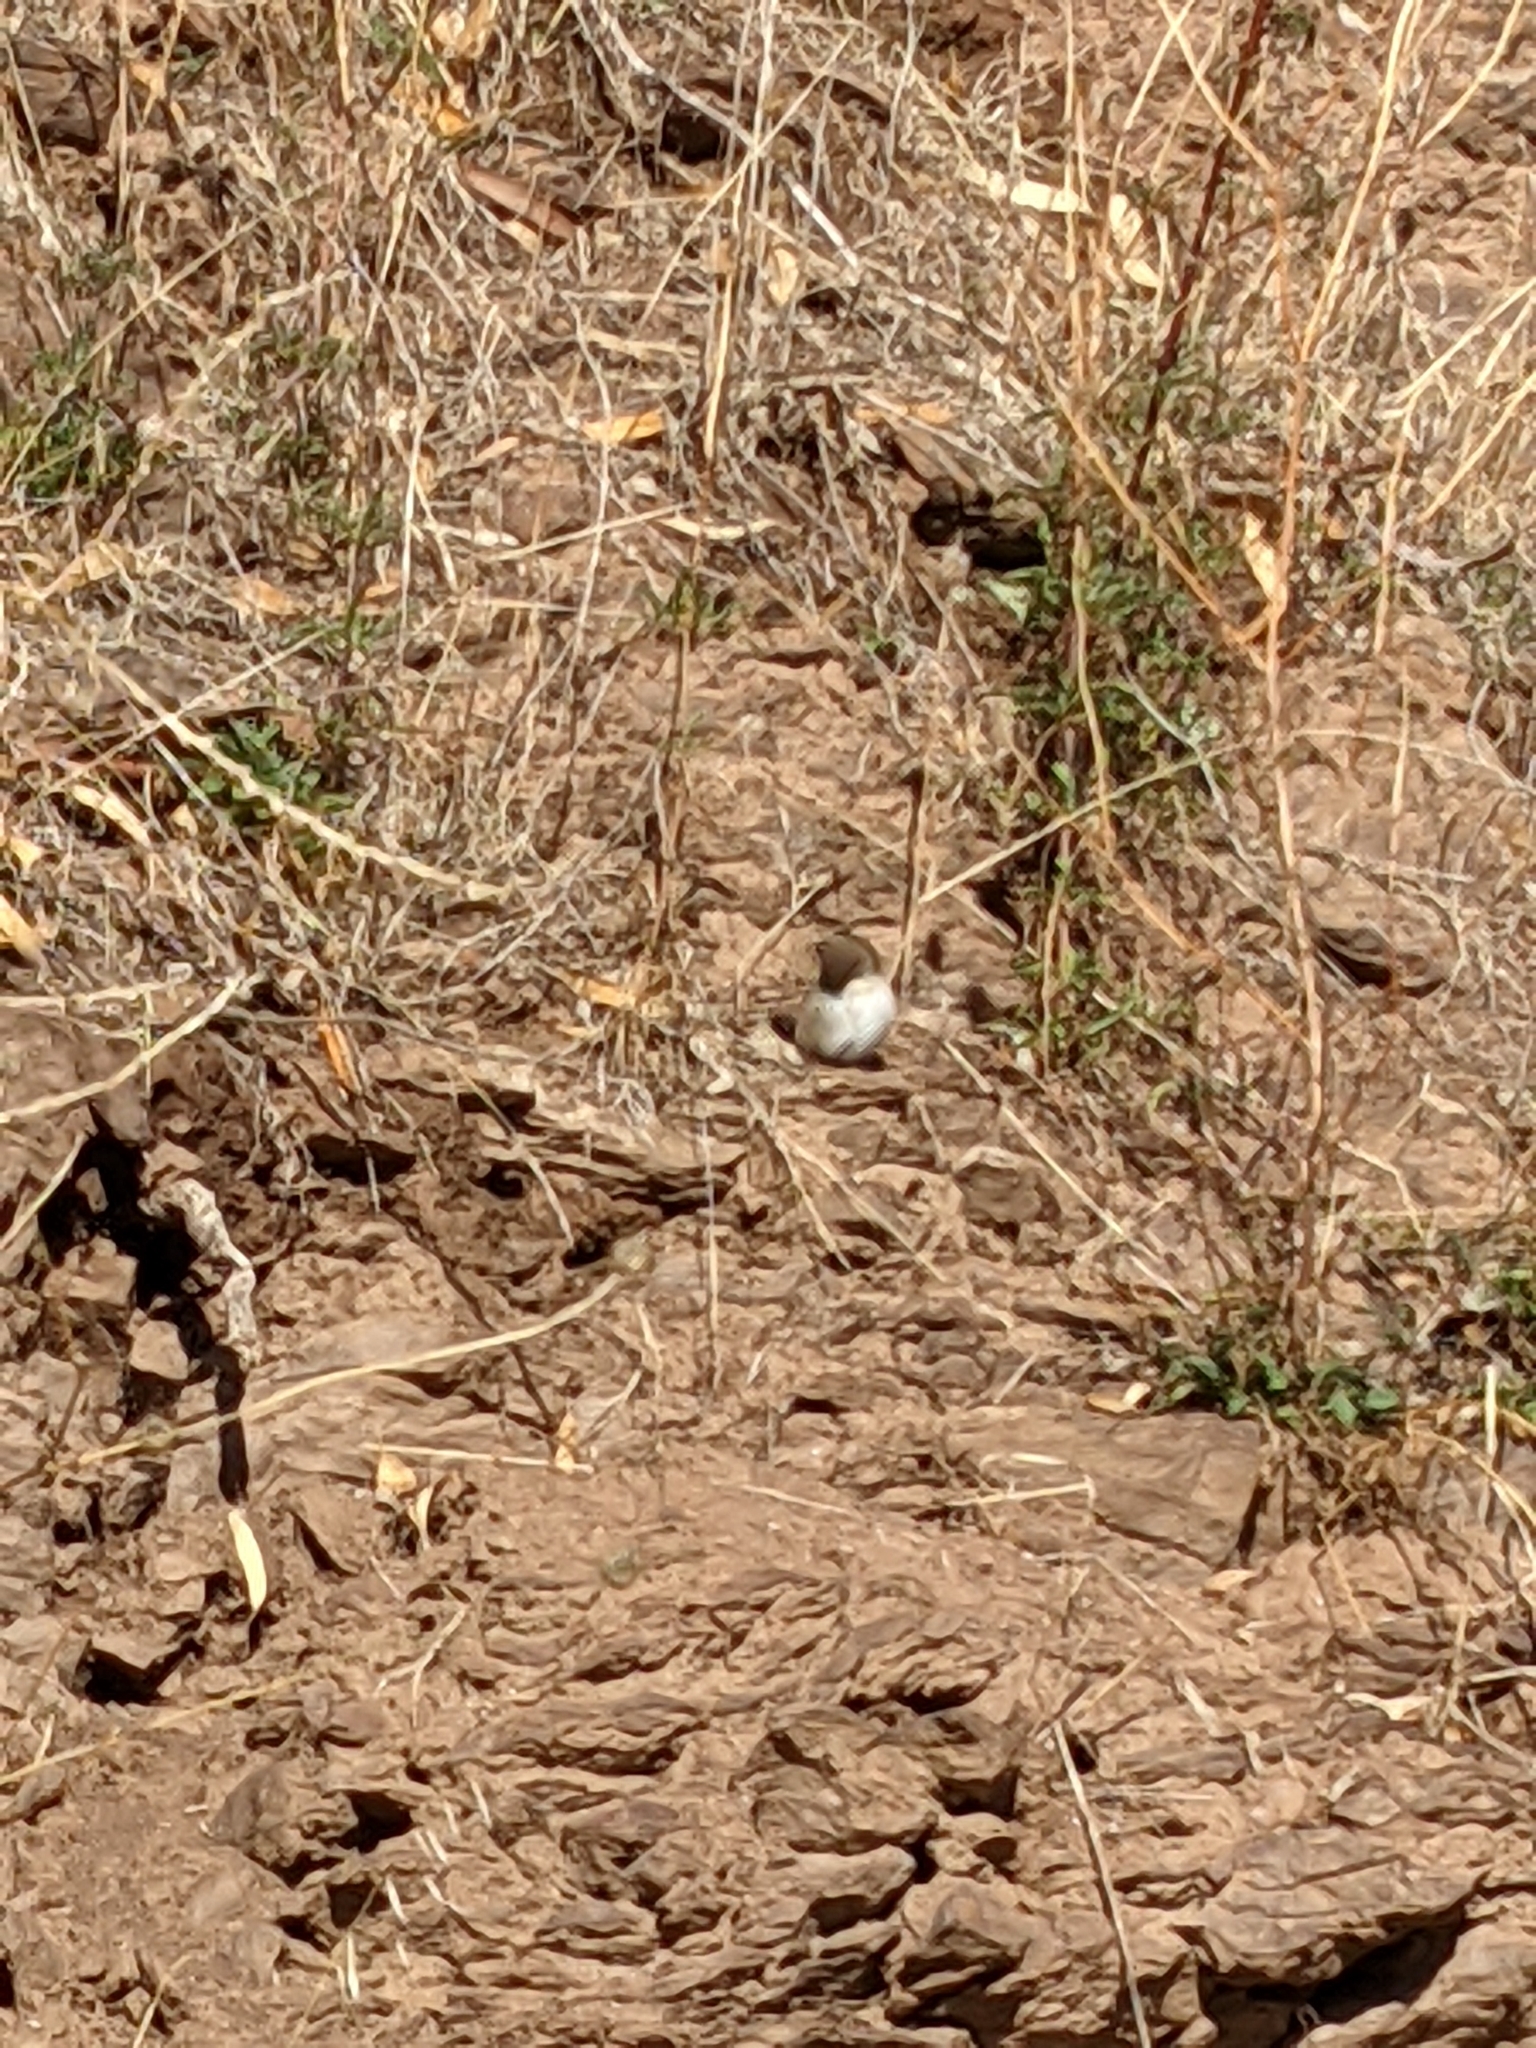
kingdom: Animalia
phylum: Chordata
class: Aves
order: Passeriformes
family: Maluridae
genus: Malurus
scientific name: Malurus cyaneus
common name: Superb fairywren
